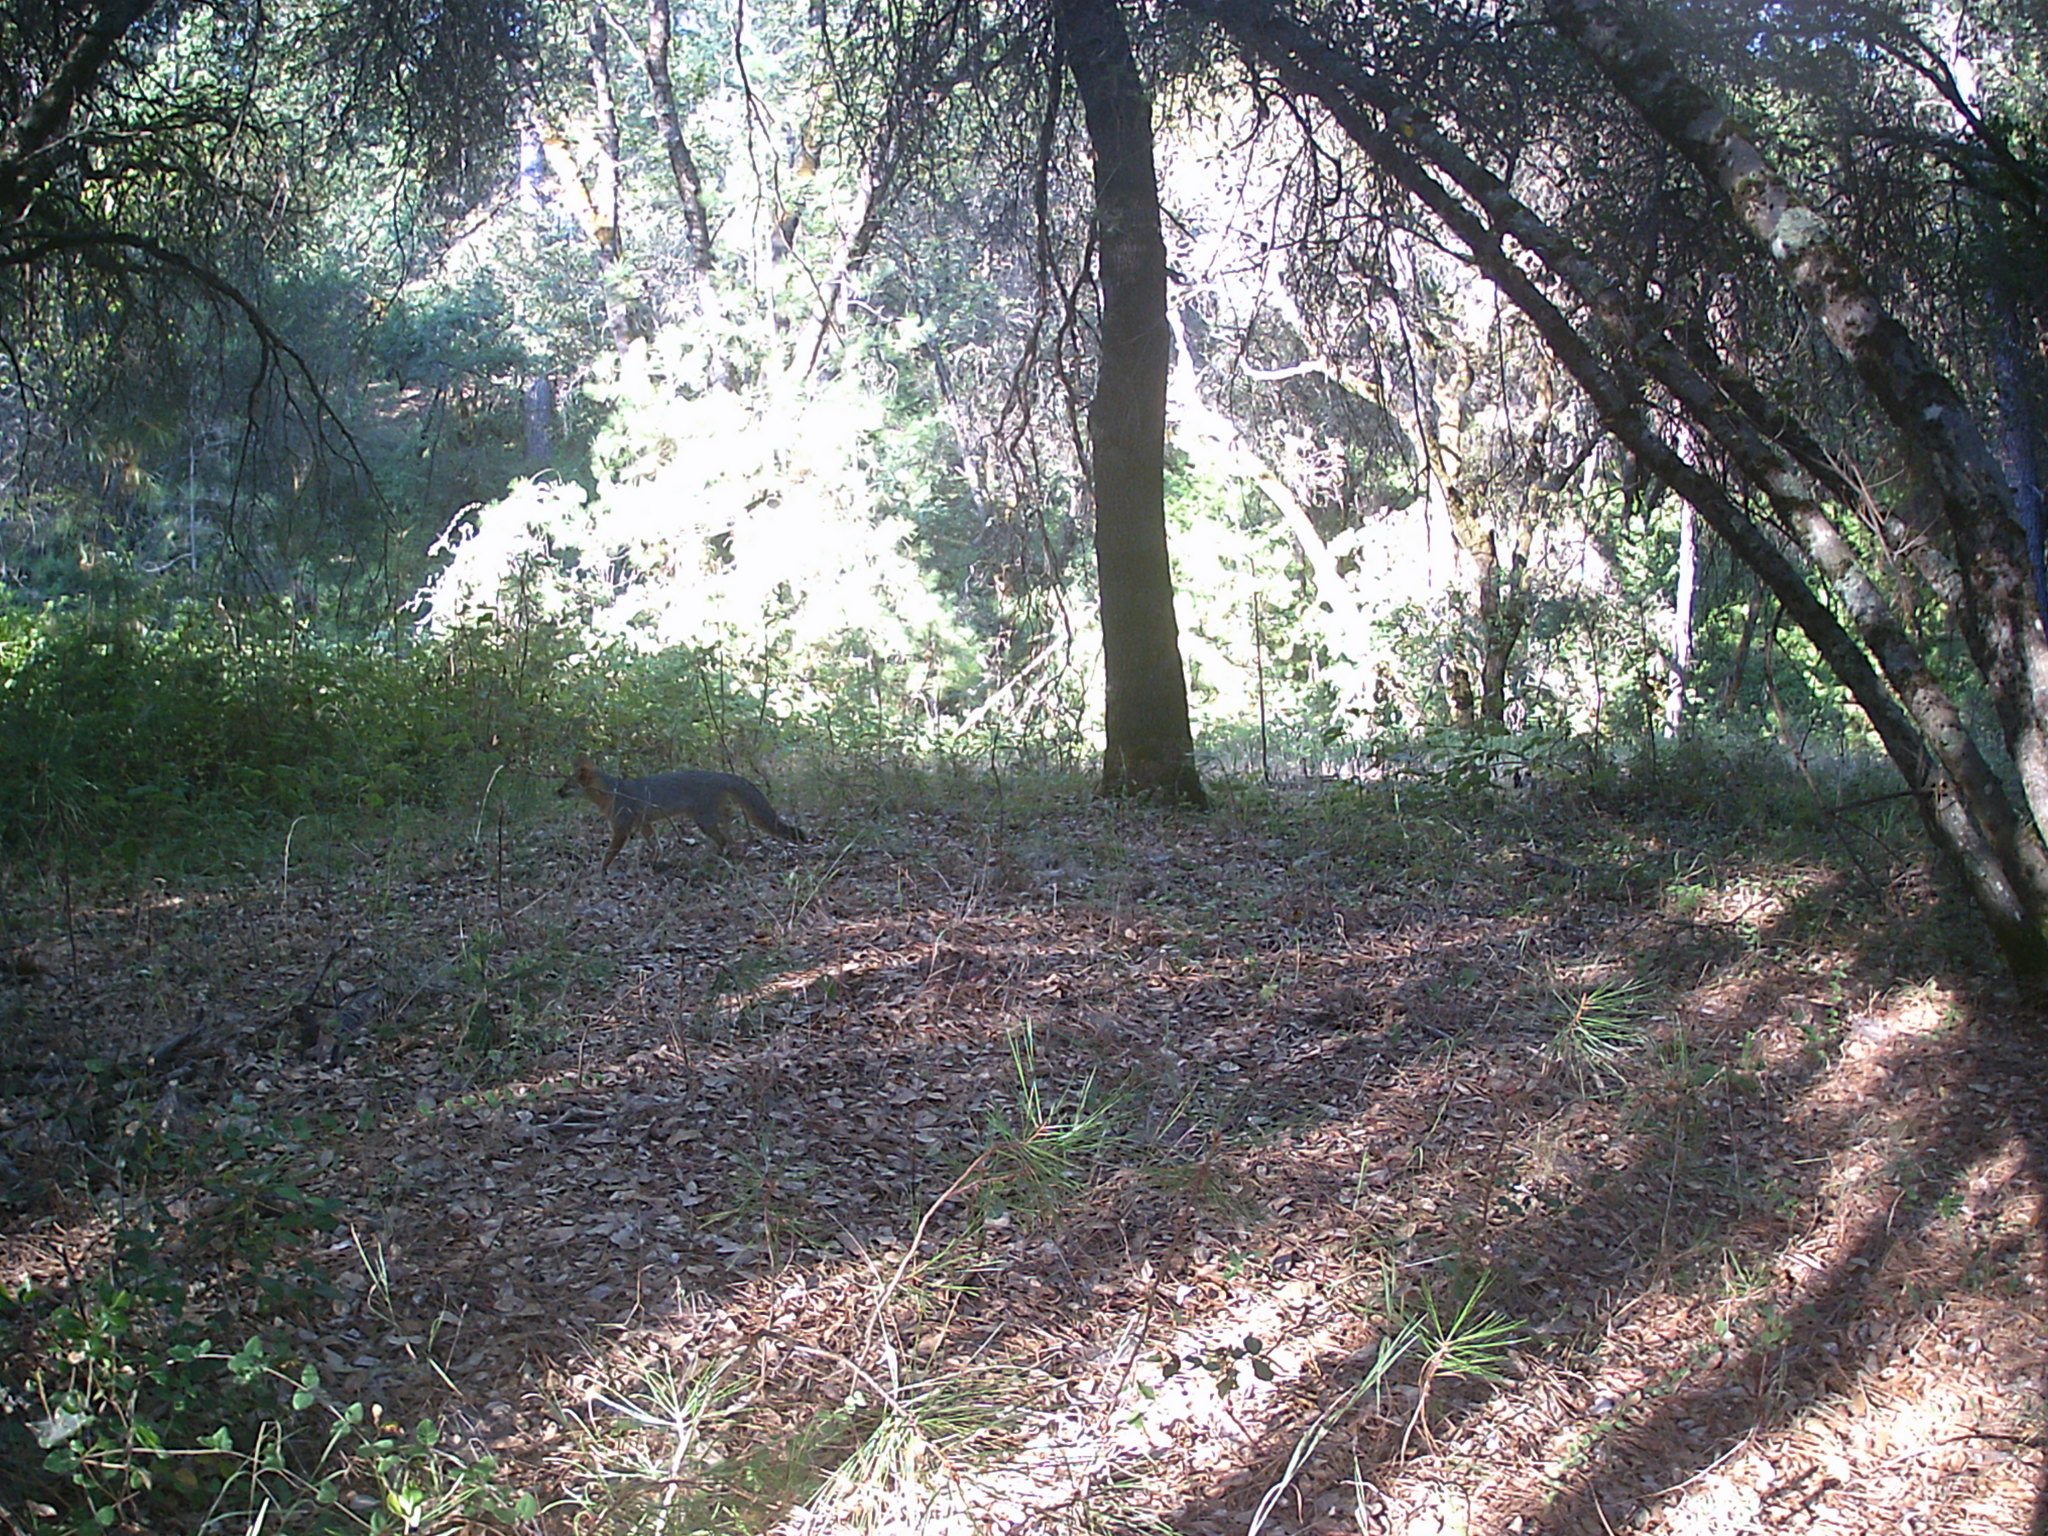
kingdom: Animalia
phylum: Chordata
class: Mammalia
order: Carnivora
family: Canidae
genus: Urocyon
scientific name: Urocyon cinereoargenteus
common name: Gray fox
